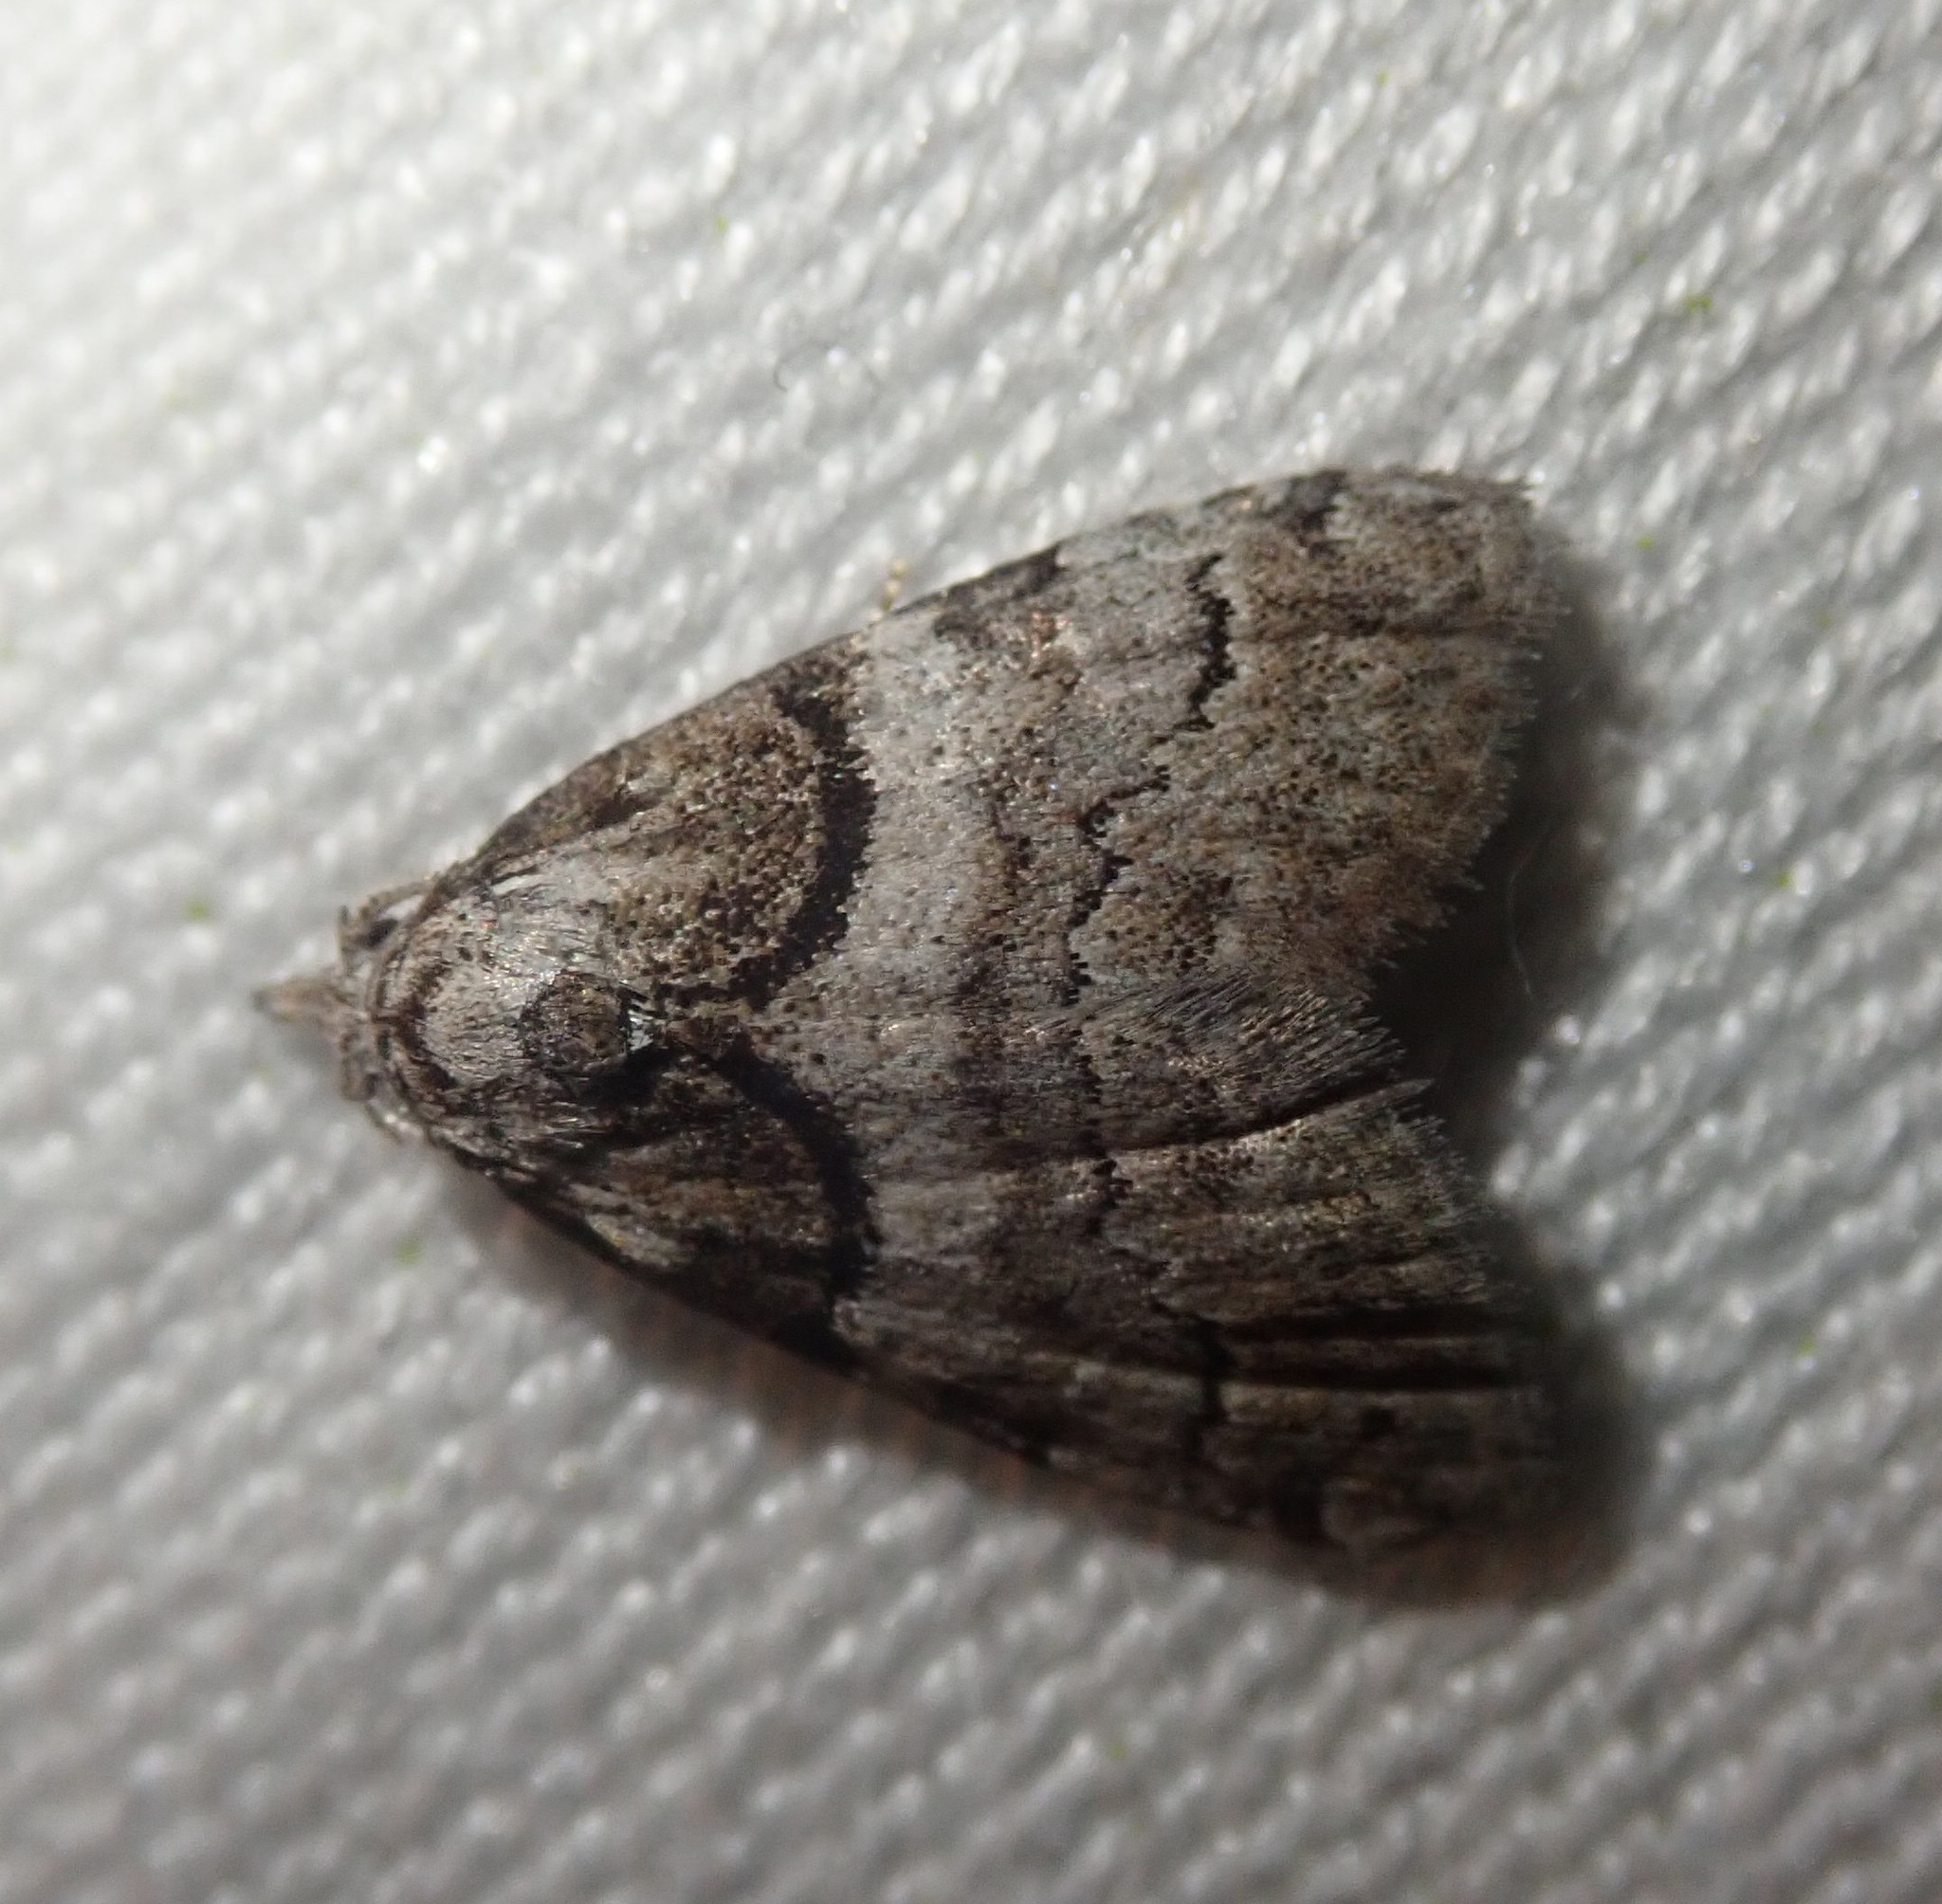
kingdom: Animalia
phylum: Arthropoda
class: Insecta
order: Lepidoptera
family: Nolidae
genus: Nola
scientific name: Nola cucullatella
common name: Short-cloaked moth
